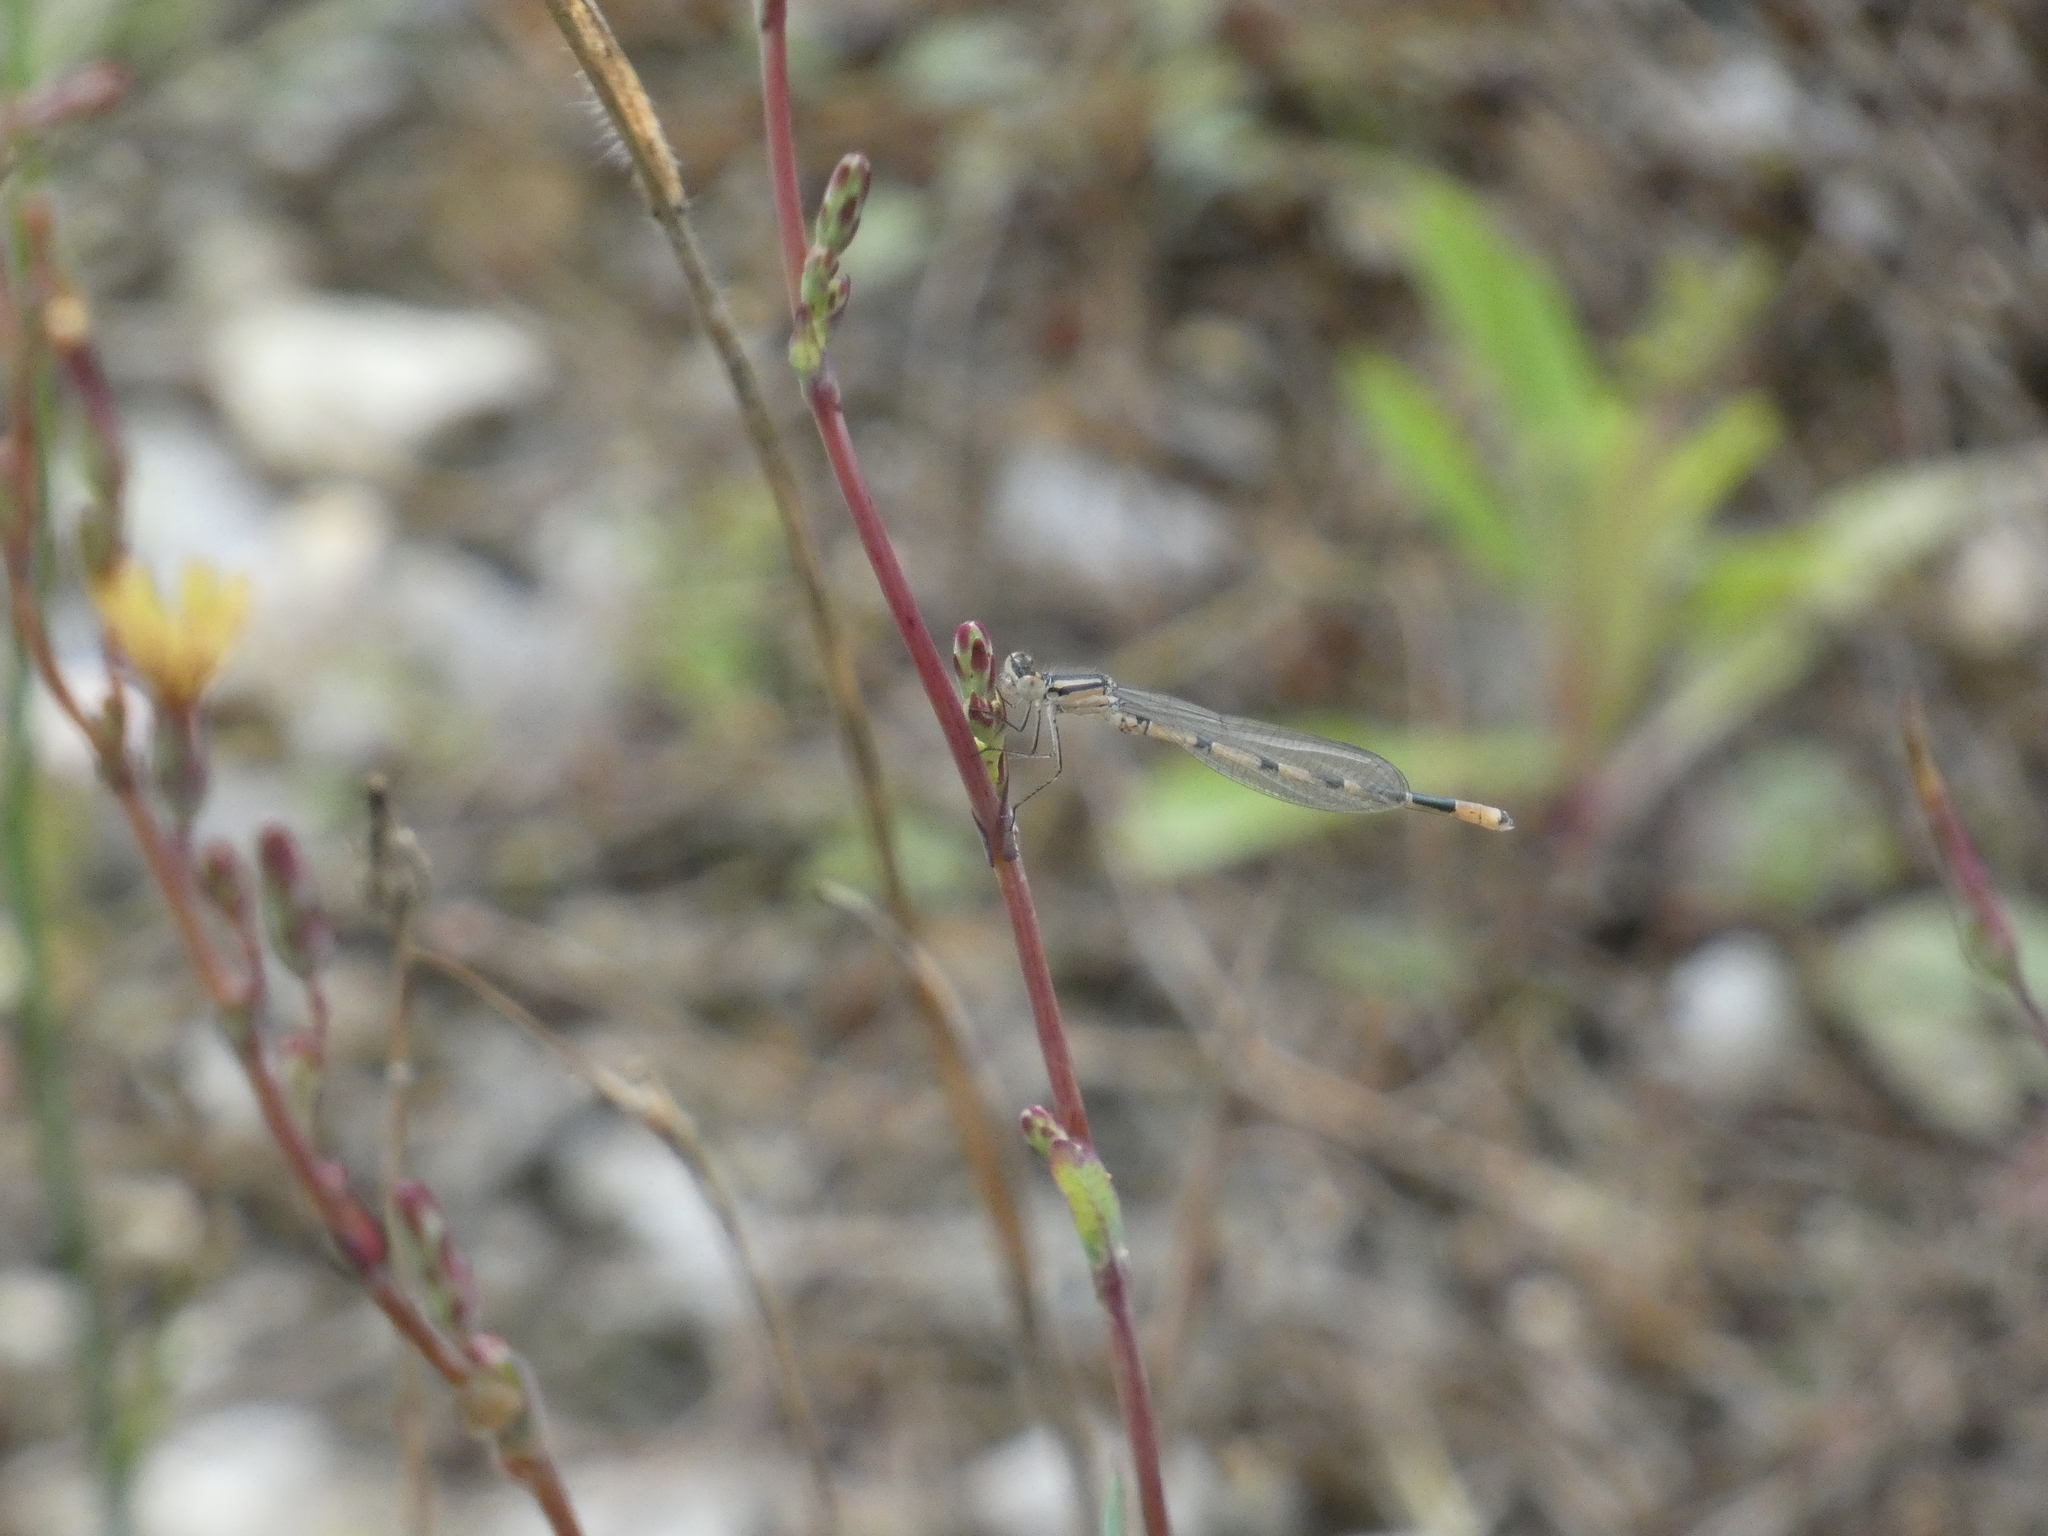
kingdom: Animalia
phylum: Arthropoda
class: Insecta
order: Odonata
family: Coenagrionidae
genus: Enallagma
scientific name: Enallagma cyathigerum
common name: Common blue damselfly
